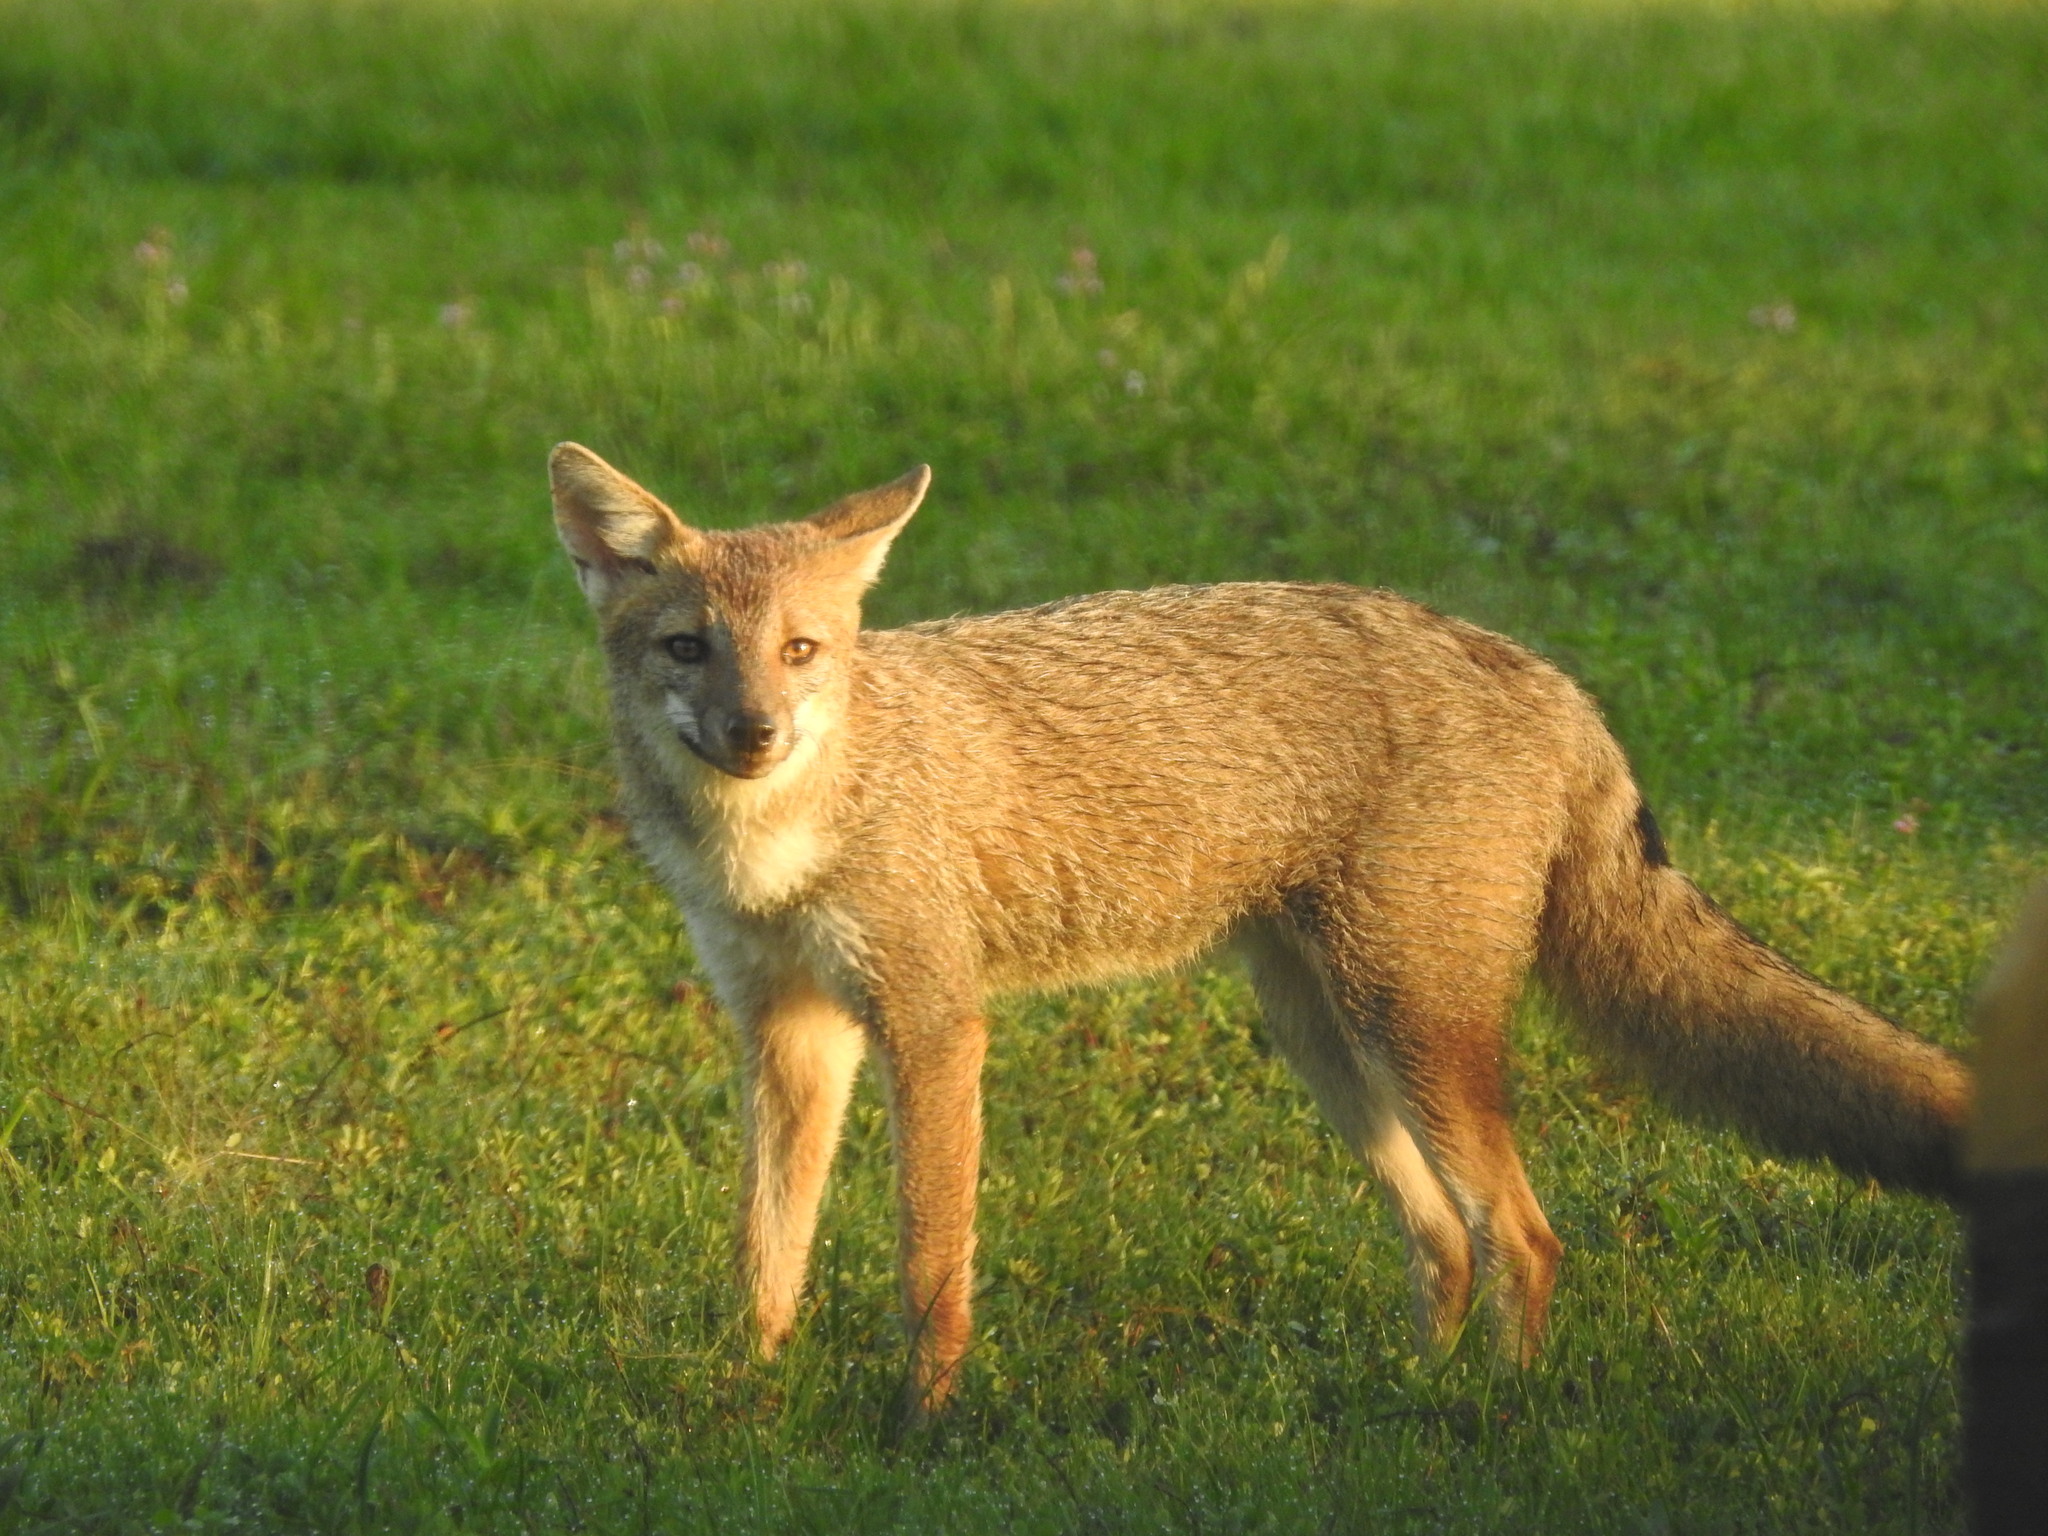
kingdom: Animalia
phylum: Chordata
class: Mammalia
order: Carnivora
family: Canidae
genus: Lycalopex
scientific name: Lycalopex gymnocercus
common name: Pampas fox
